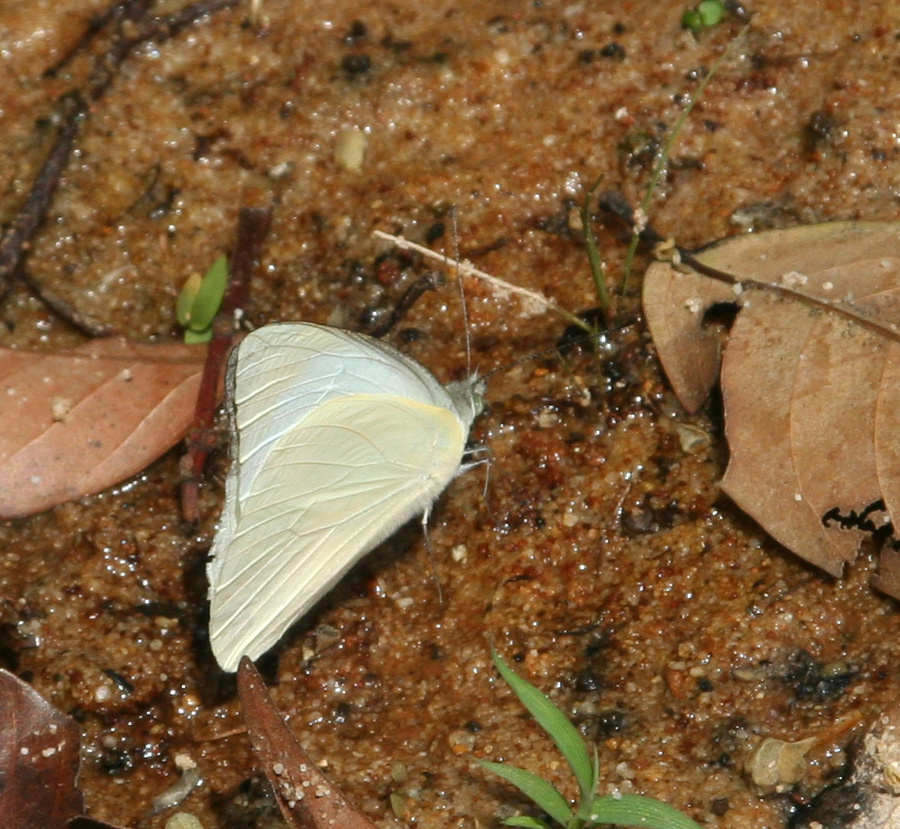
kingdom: Animalia
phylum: Arthropoda
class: Insecta
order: Lepidoptera
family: Pieridae
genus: Appias
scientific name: Appias albina
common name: Common albatross
